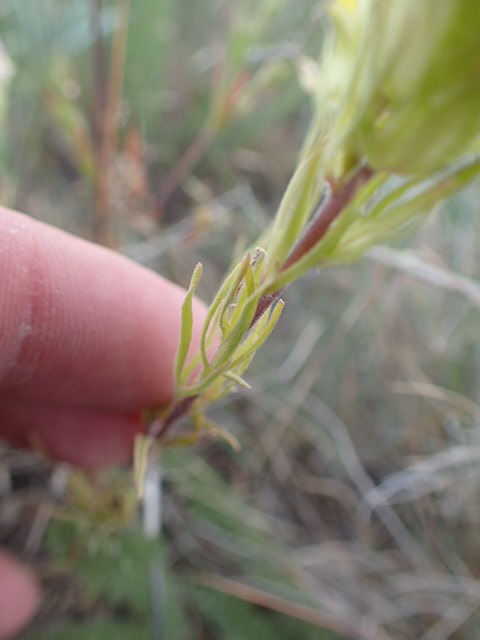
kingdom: Plantae
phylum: Tracheophyta
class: Magnoliopsida
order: Lamiales
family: Orobanchaceae
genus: Orthocarpus
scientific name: Orthocarpus tenuifolius
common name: Thin-leaved owl's-clover
